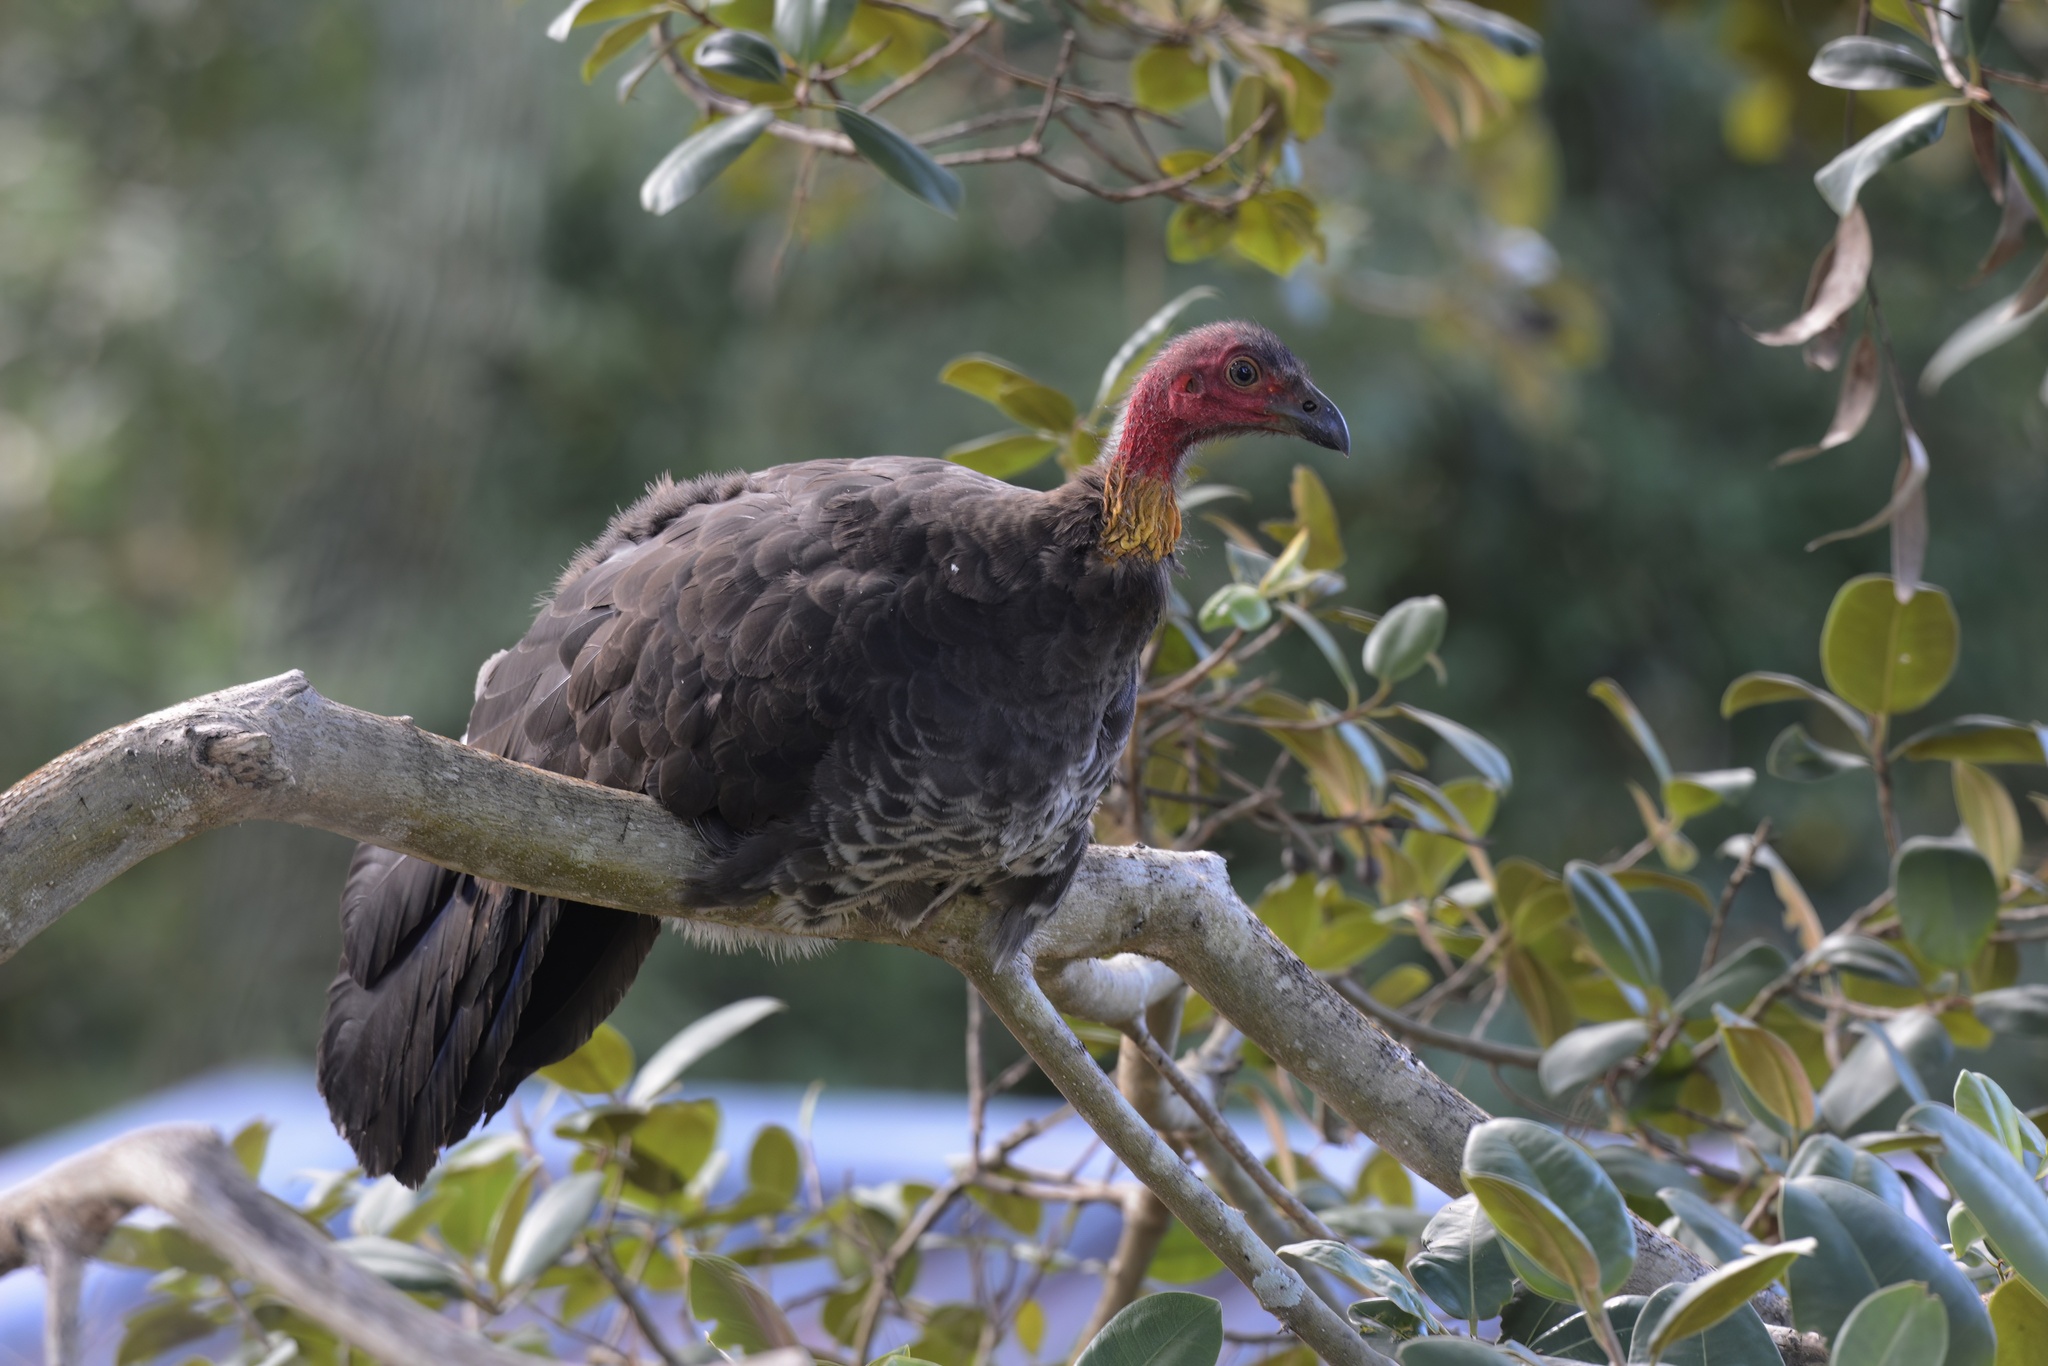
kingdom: Animalia
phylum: Chordata
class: Aves
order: Galliformes
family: Megapodiidae
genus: Alectura
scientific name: Alectura lathami
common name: Australian brushturkey
